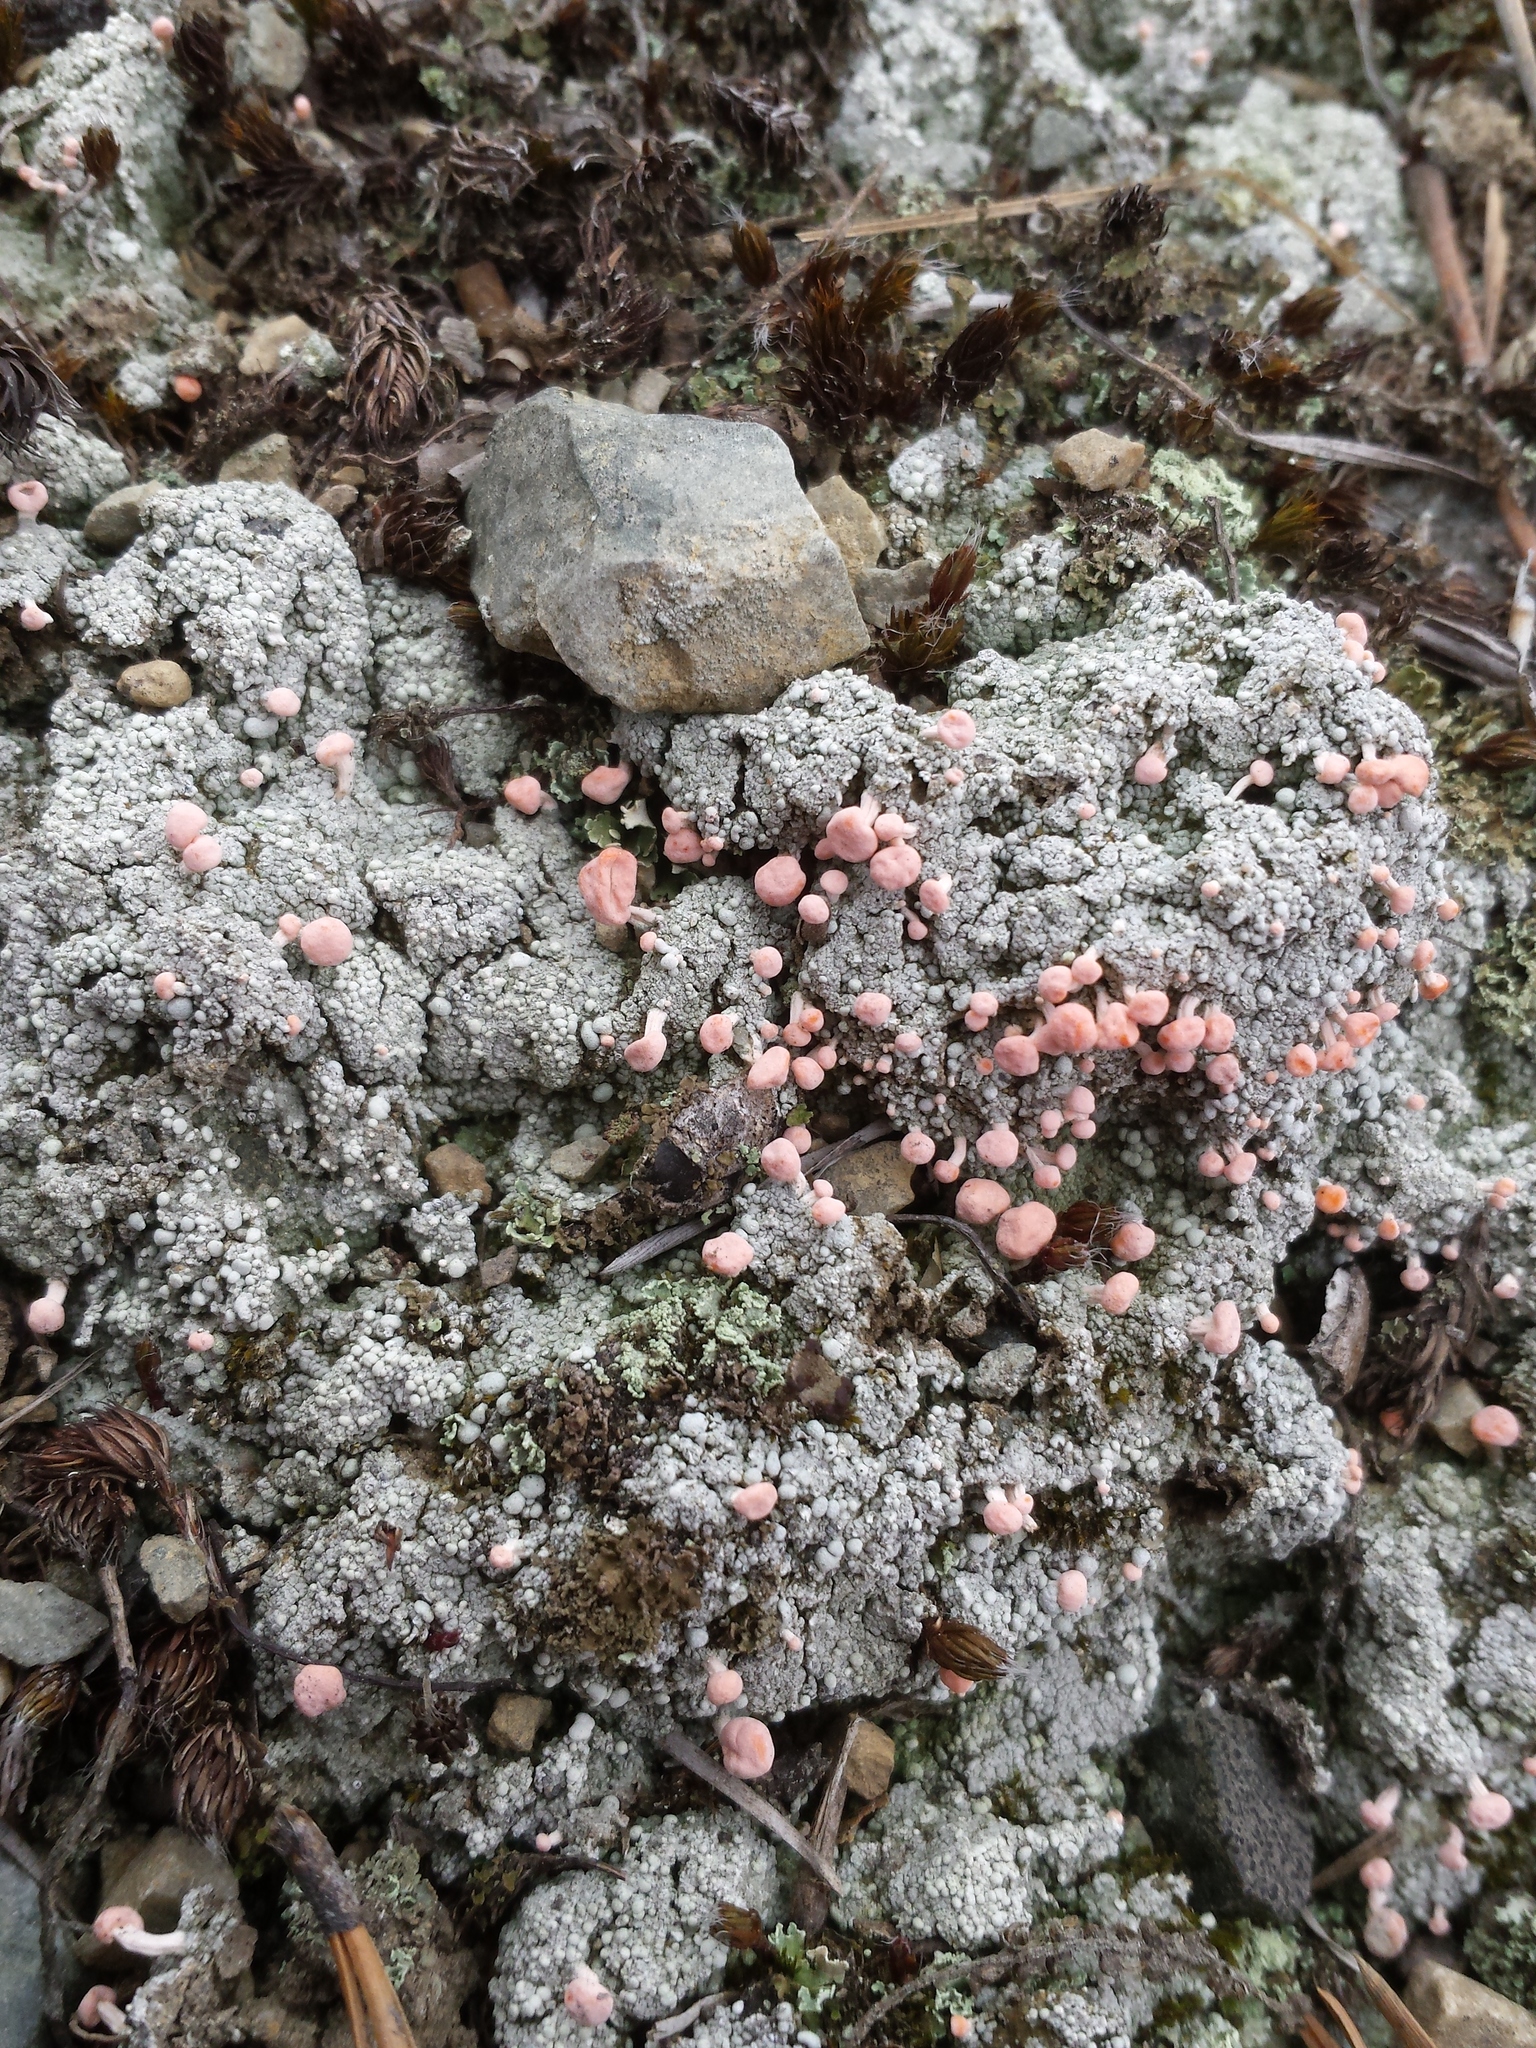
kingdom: Fungi
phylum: Ascomycota
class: Lecanoromycetes
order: Pertusariales
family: Icmadophilaceae
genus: Dibaeis
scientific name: Dibaeis baeomyces
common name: Pink earth lichen
